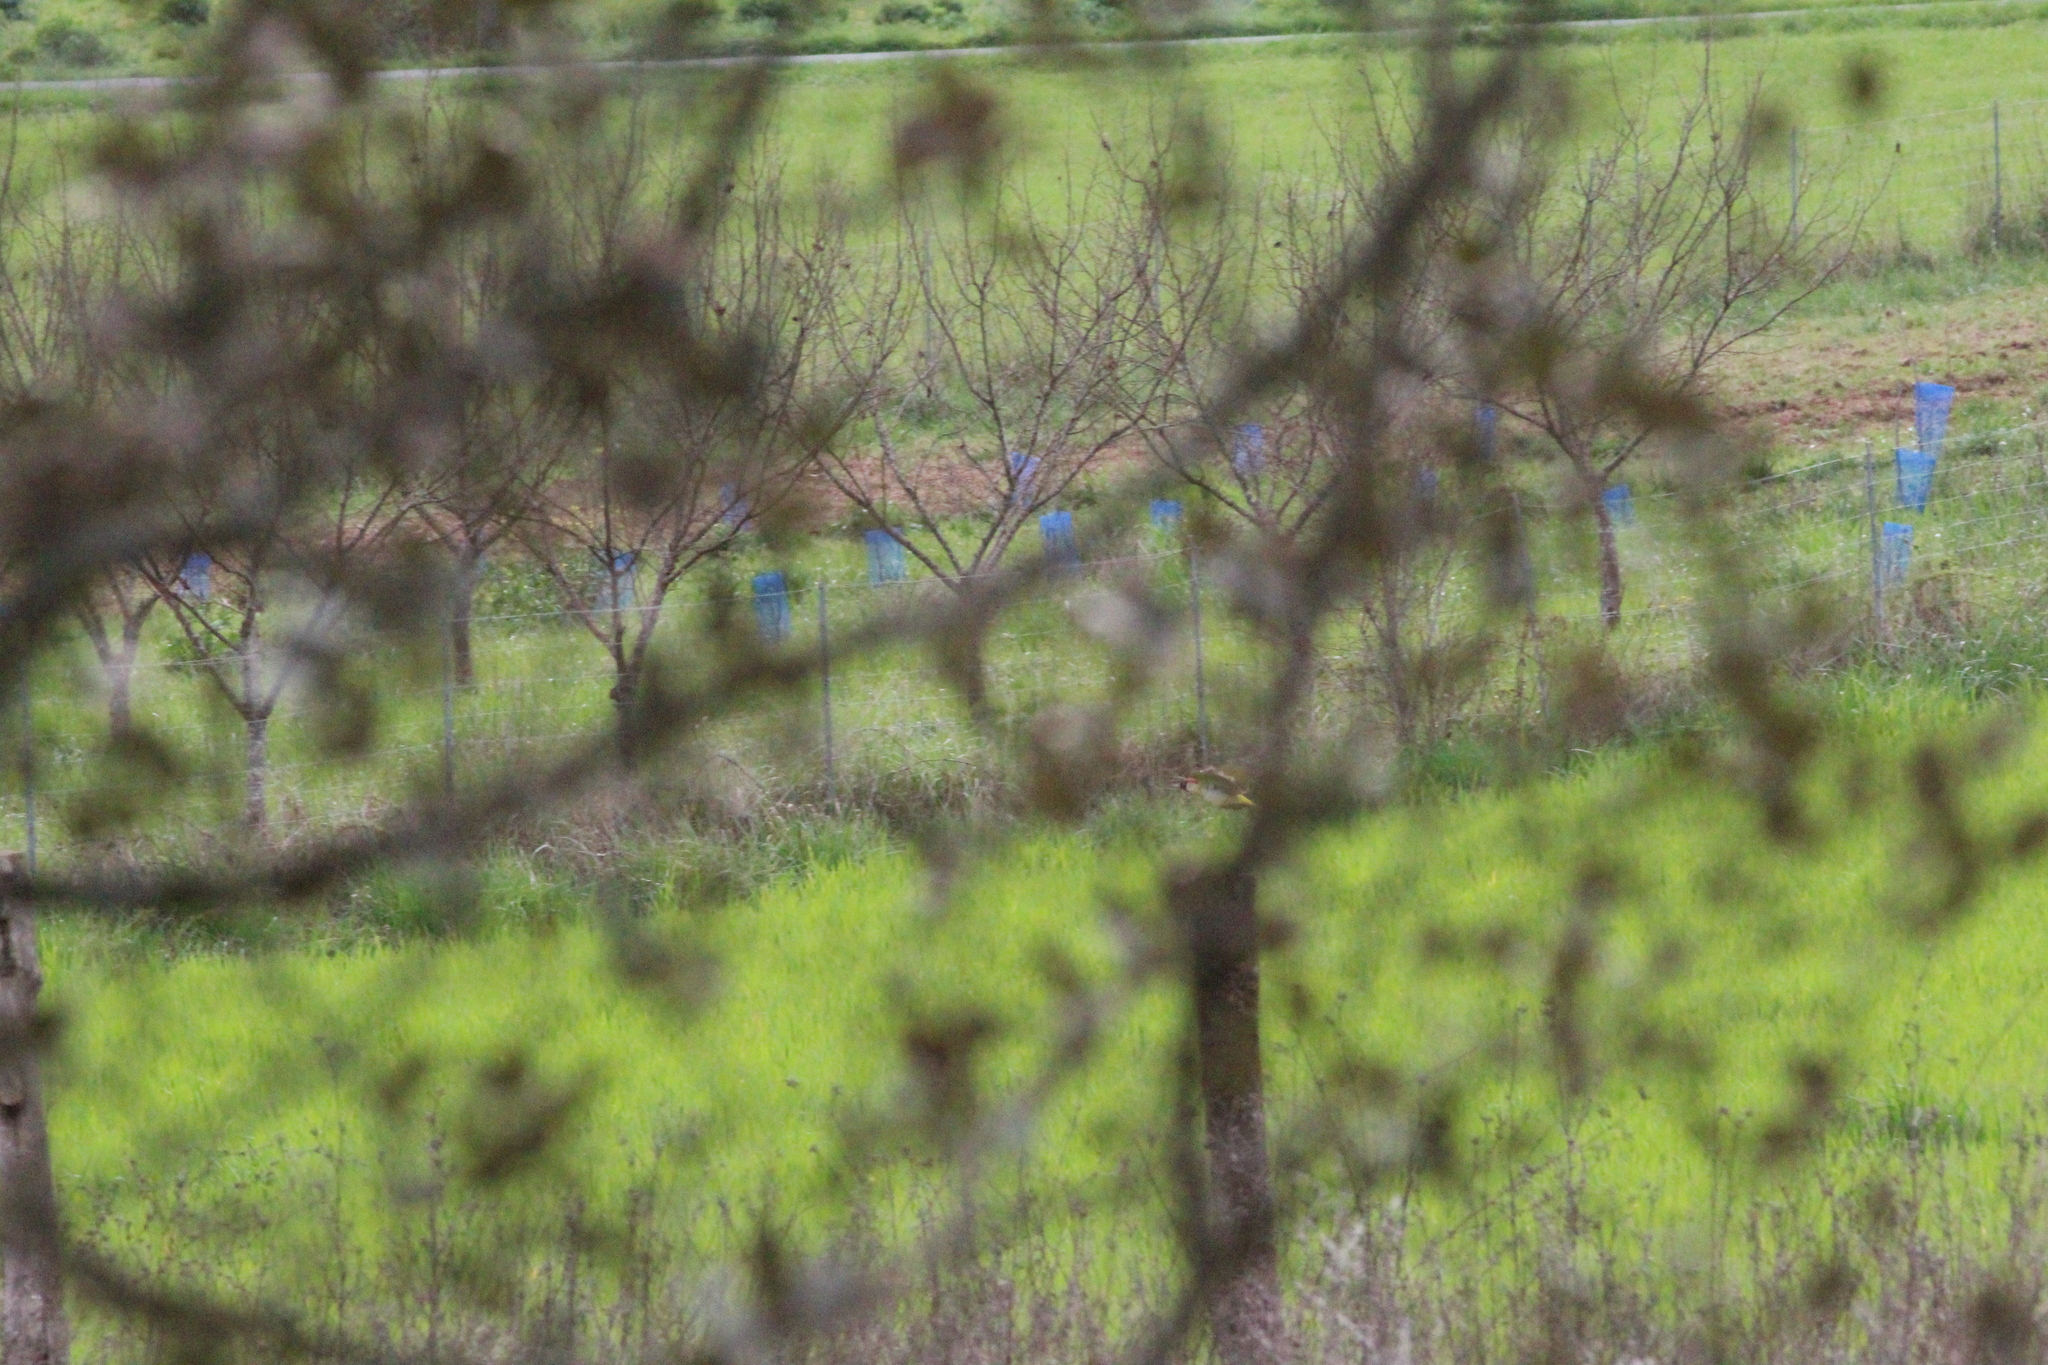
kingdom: Animalia
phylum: Chordata
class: Aves
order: Piciformes
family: Picidae
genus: Picus
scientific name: Picus viridis
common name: European green woodpecker
